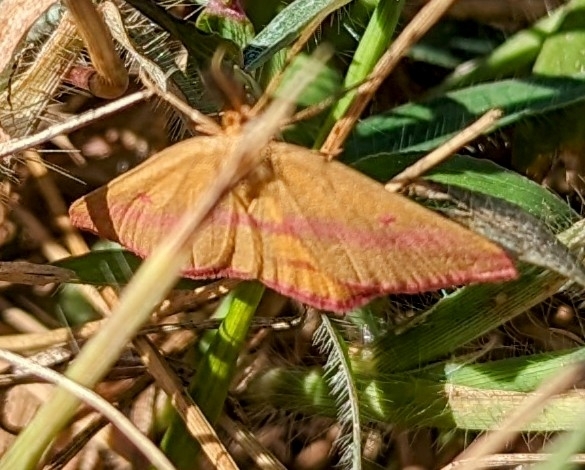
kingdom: Animalia
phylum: Arthropoda
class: Insecta
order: Lepidoptera
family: Geometridae
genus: Haematopis
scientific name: Haematopis grataria
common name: Chickweed geometer
